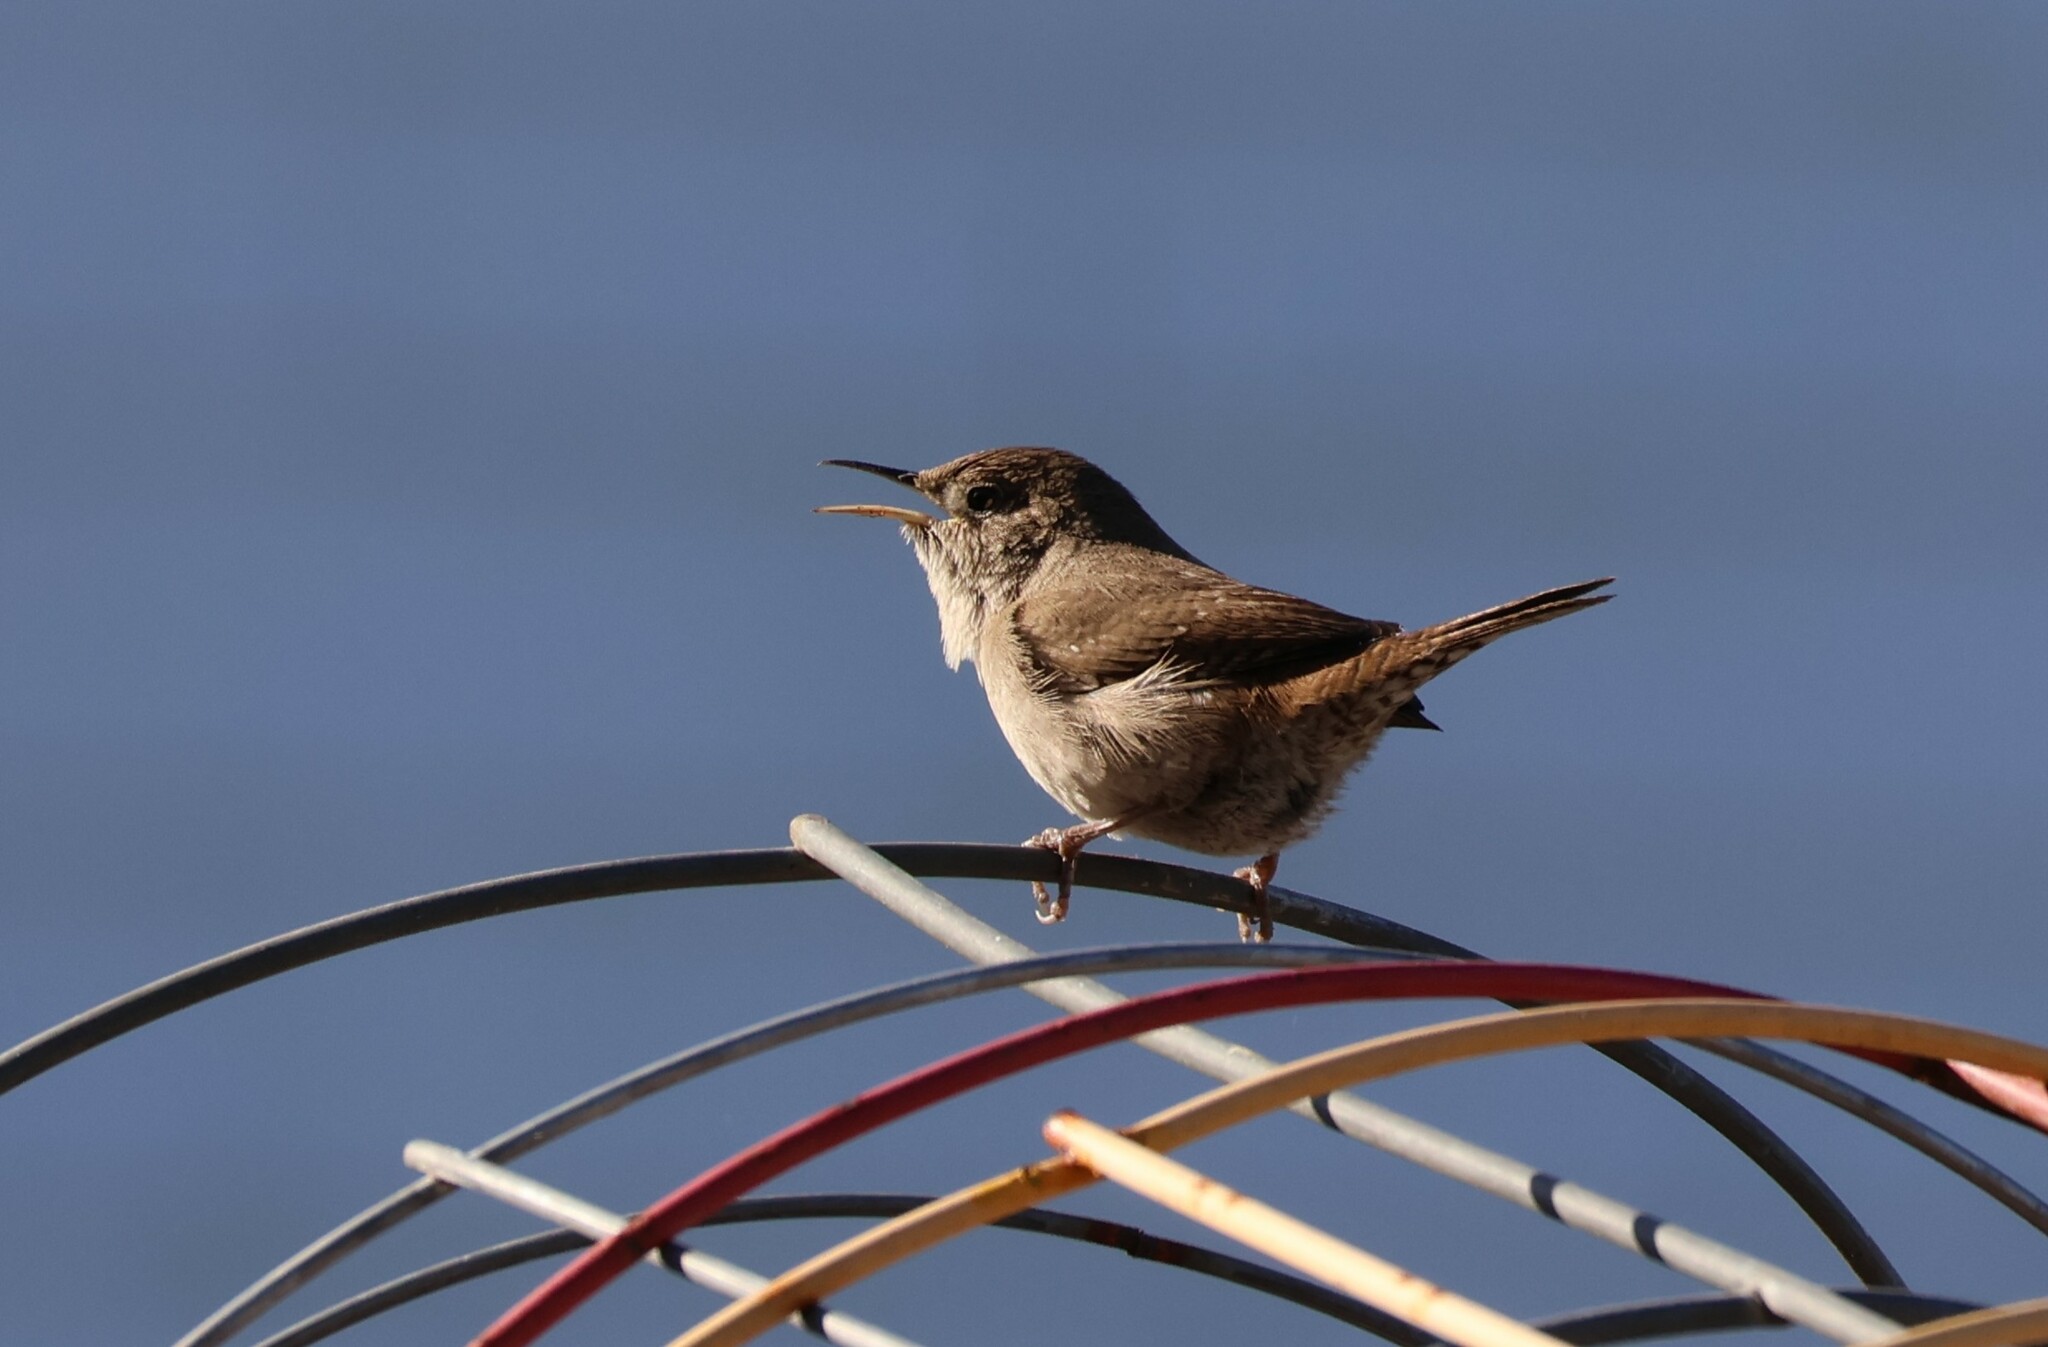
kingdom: Animalia
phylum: Chordata
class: Aves
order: Passeriformes
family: Troglodytidae
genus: Troglodytes
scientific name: Troglodytes aedon
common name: House wren
